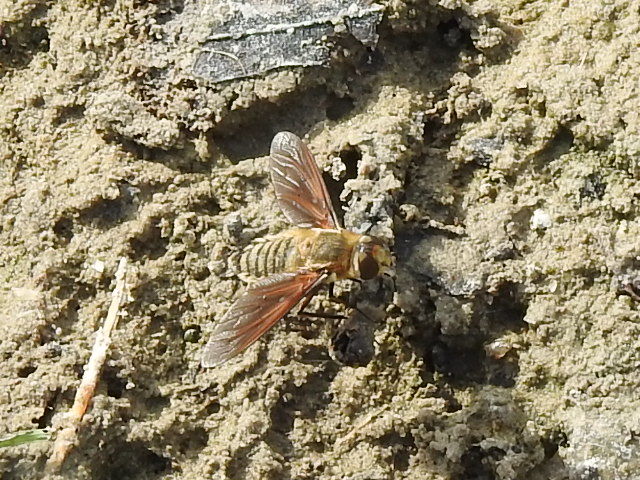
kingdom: Animalia
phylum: Arthropoda
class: Insecta
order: Diptera
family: Bombyliidae
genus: Poecilanthrax
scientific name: Poecilanthrax lucifer
